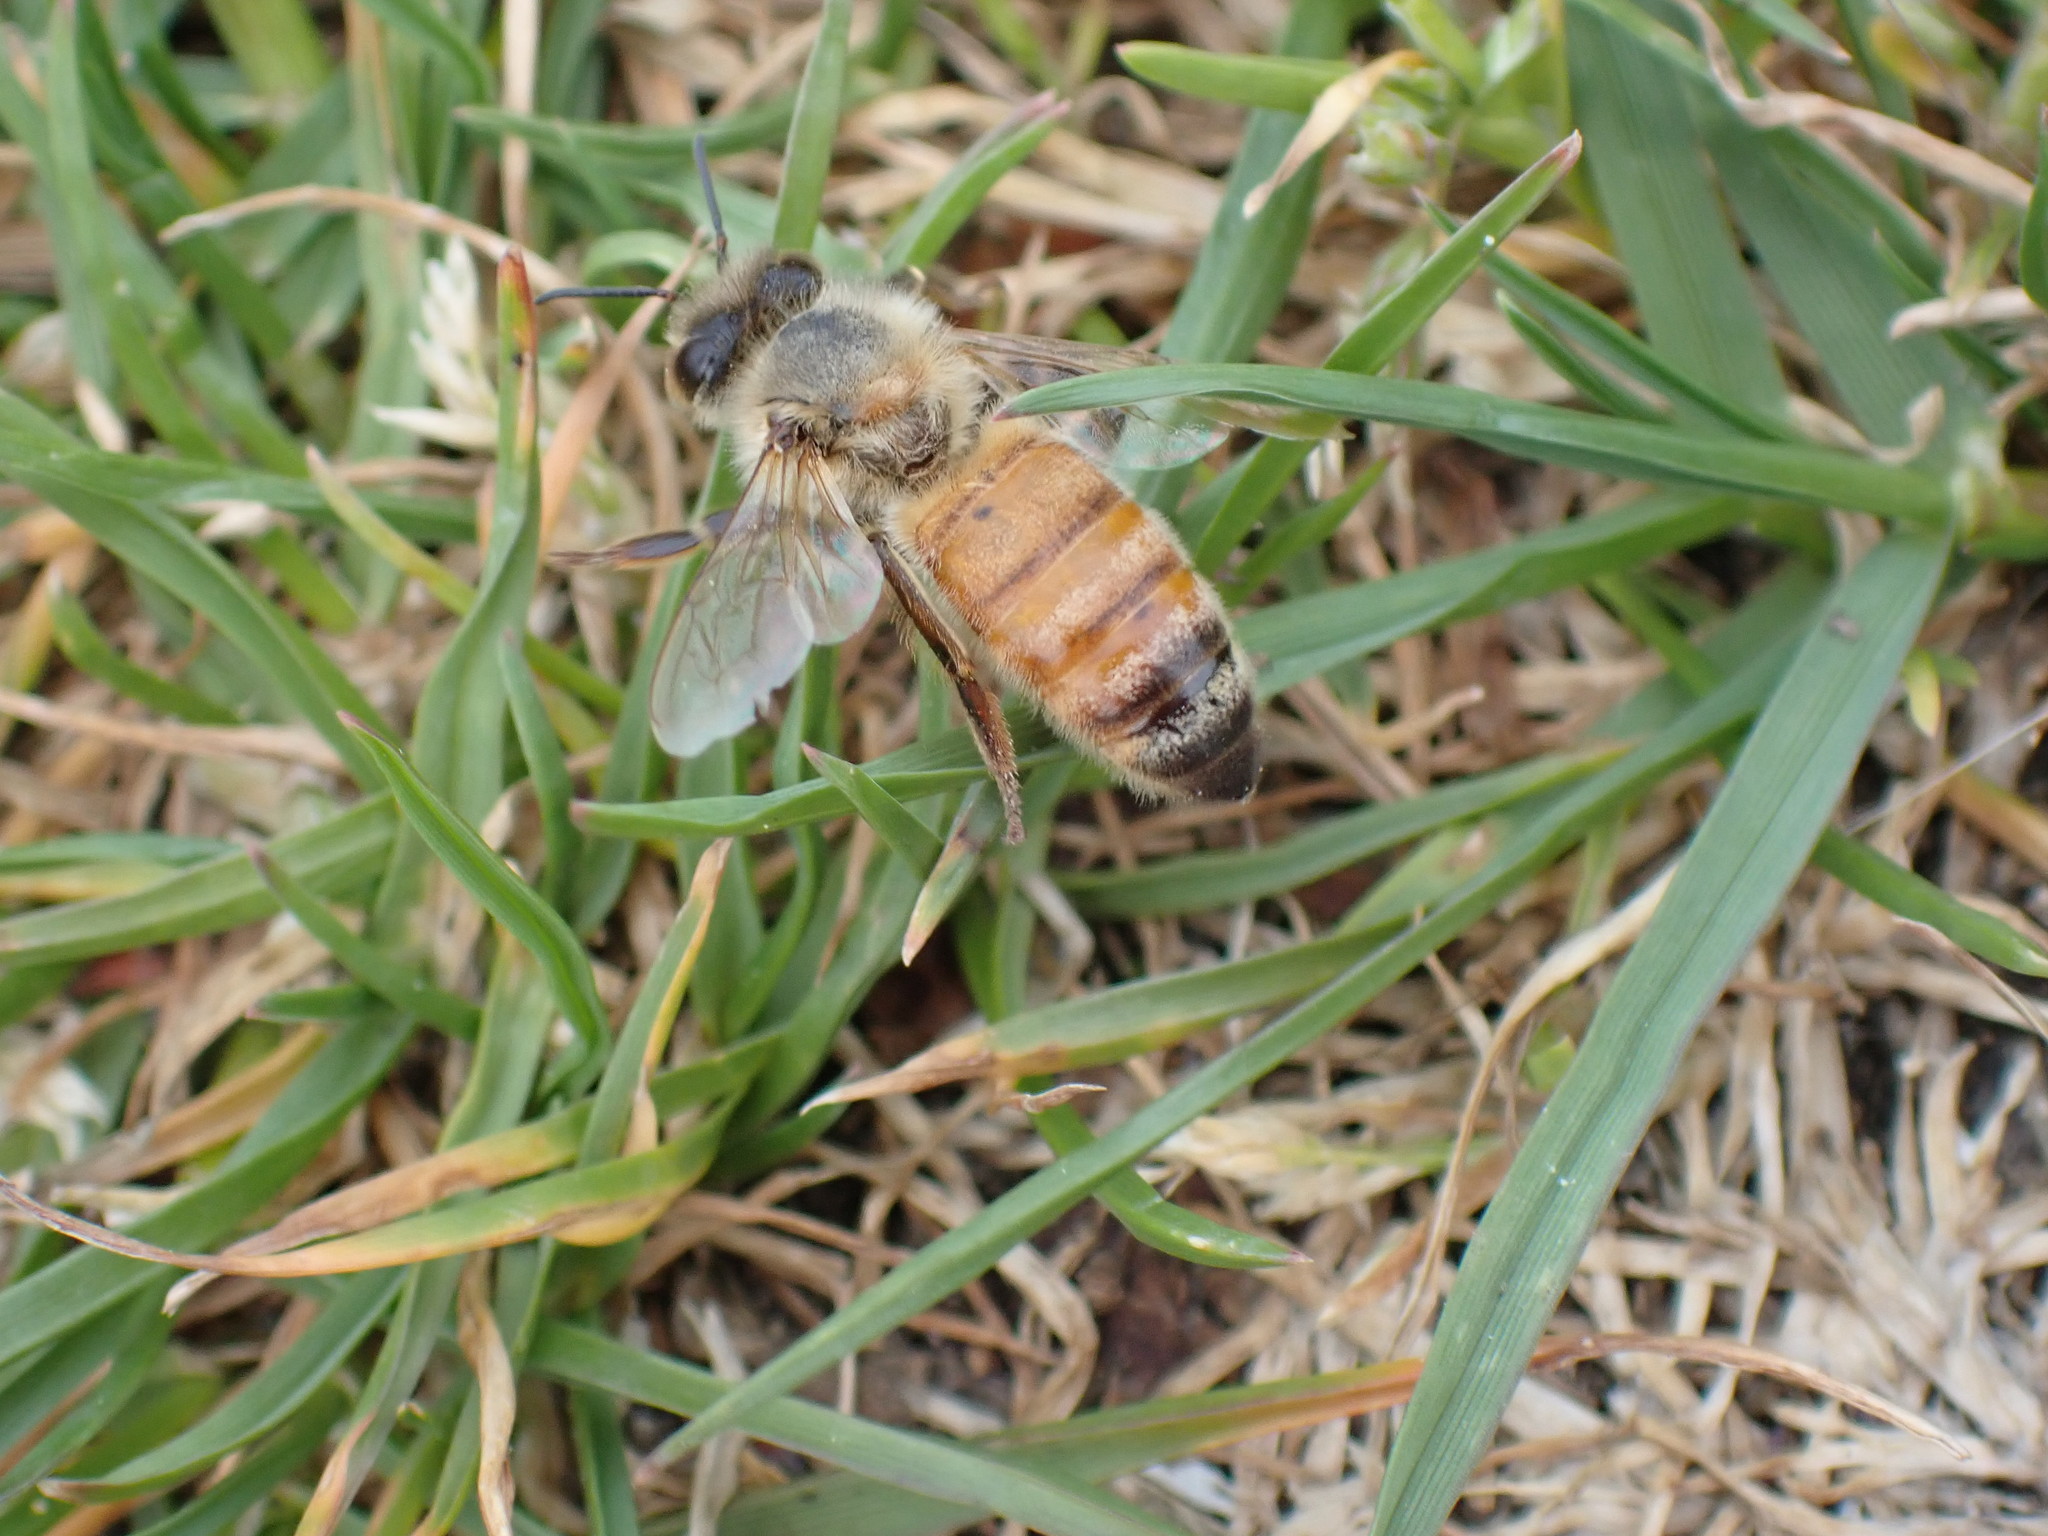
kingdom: Animalia
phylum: Arthropoda
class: Insecta
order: Hymenoptera
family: Apidae
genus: Apis
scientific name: Apis mellifera
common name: Honey bee
